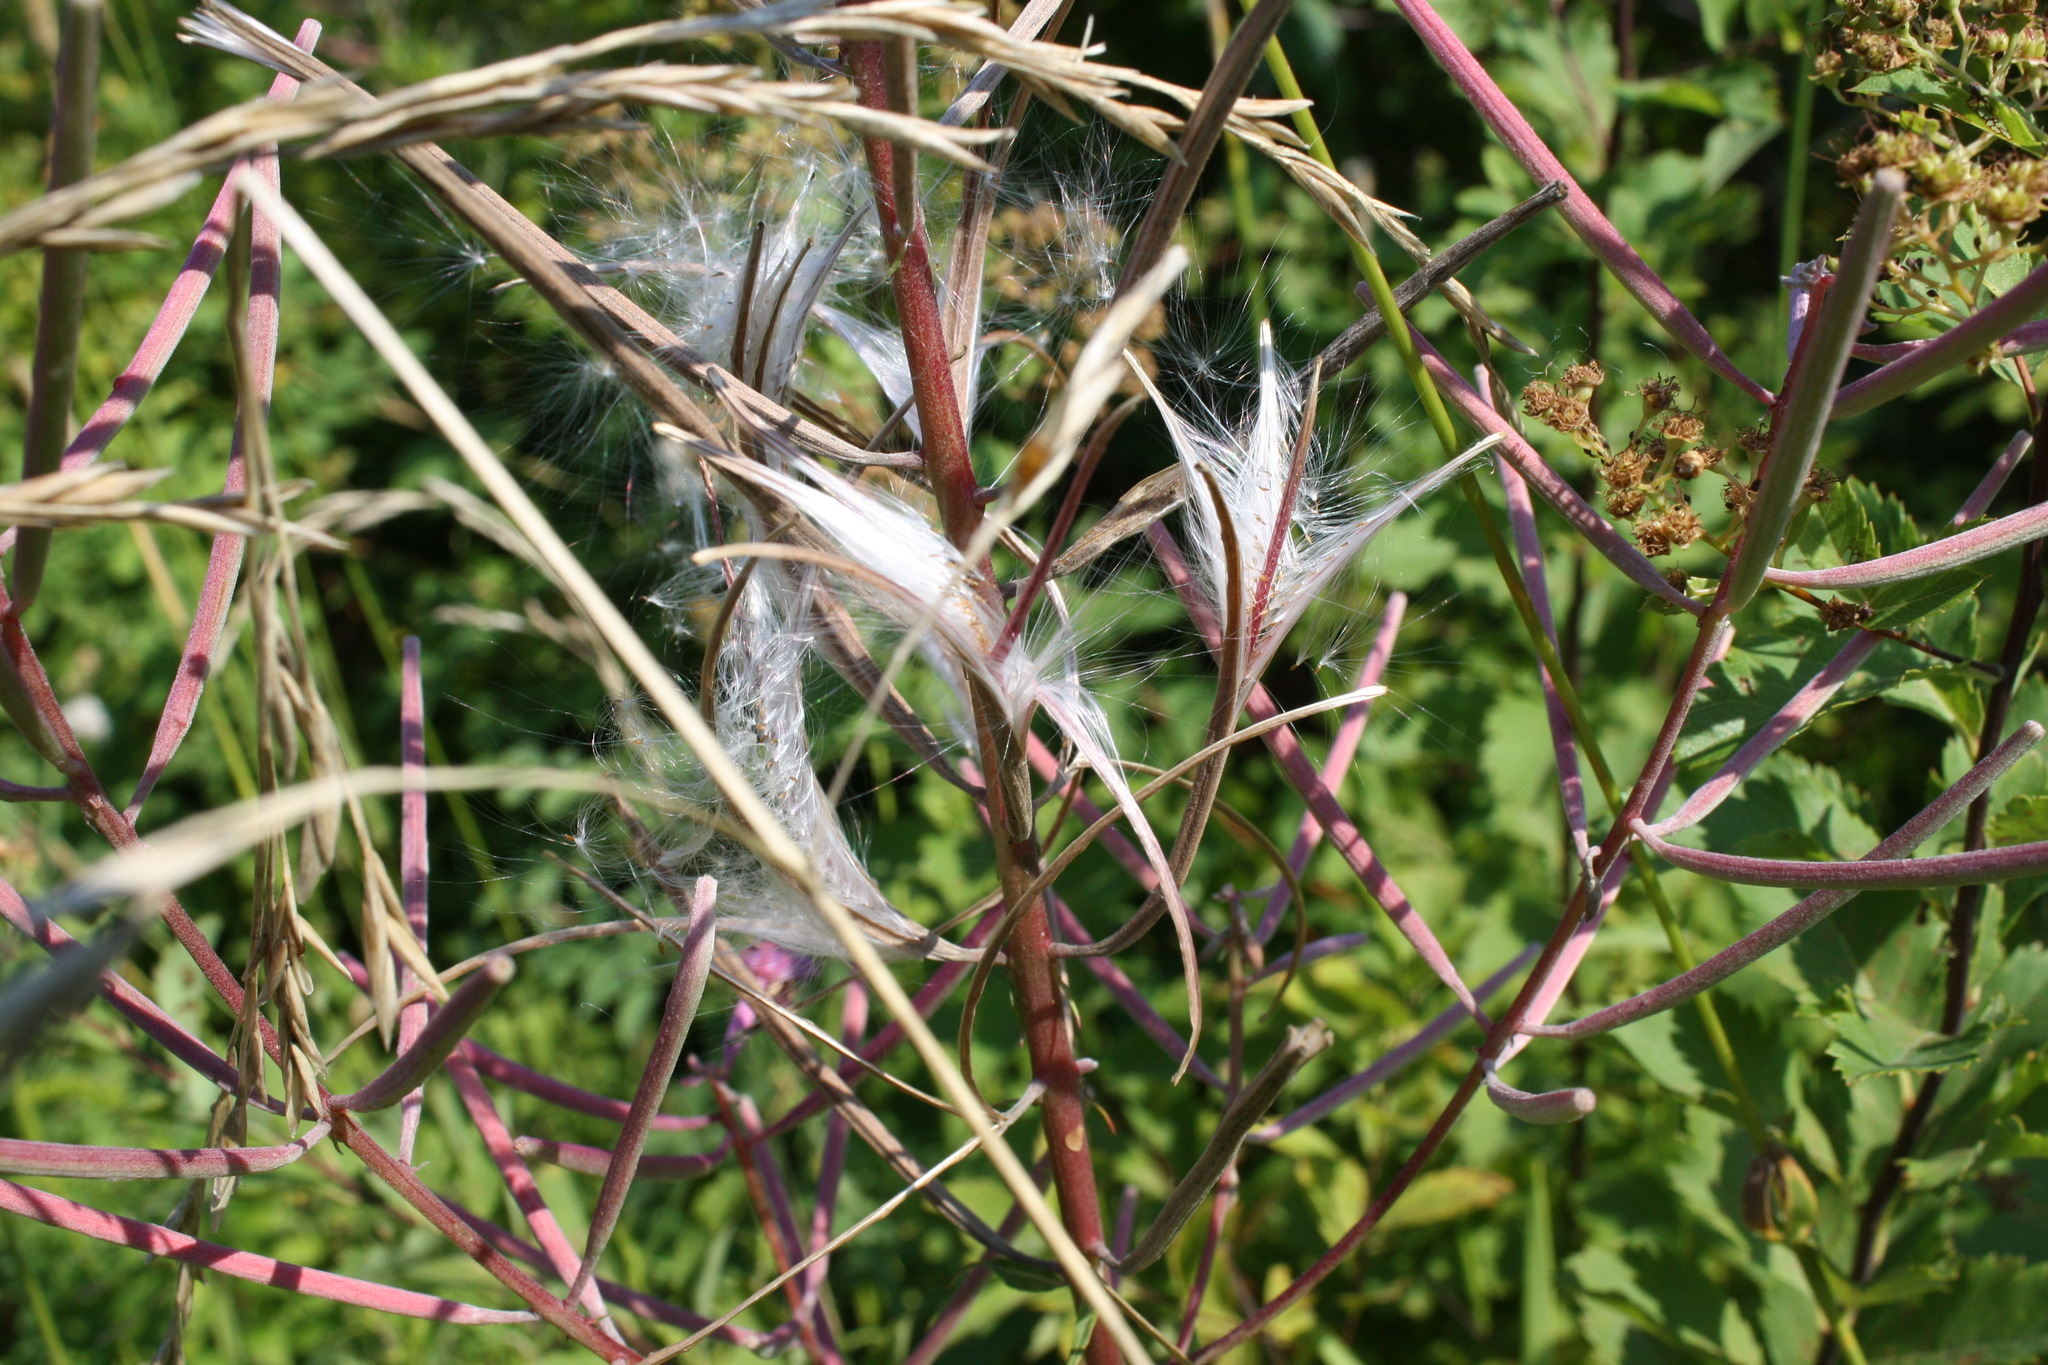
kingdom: Plantae
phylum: Tracheophyta
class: Magnoliopsida
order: Myrtales
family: Onagraceae
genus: Chamaenerion
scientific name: Chamaenerion angustifolium
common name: Fireweed
